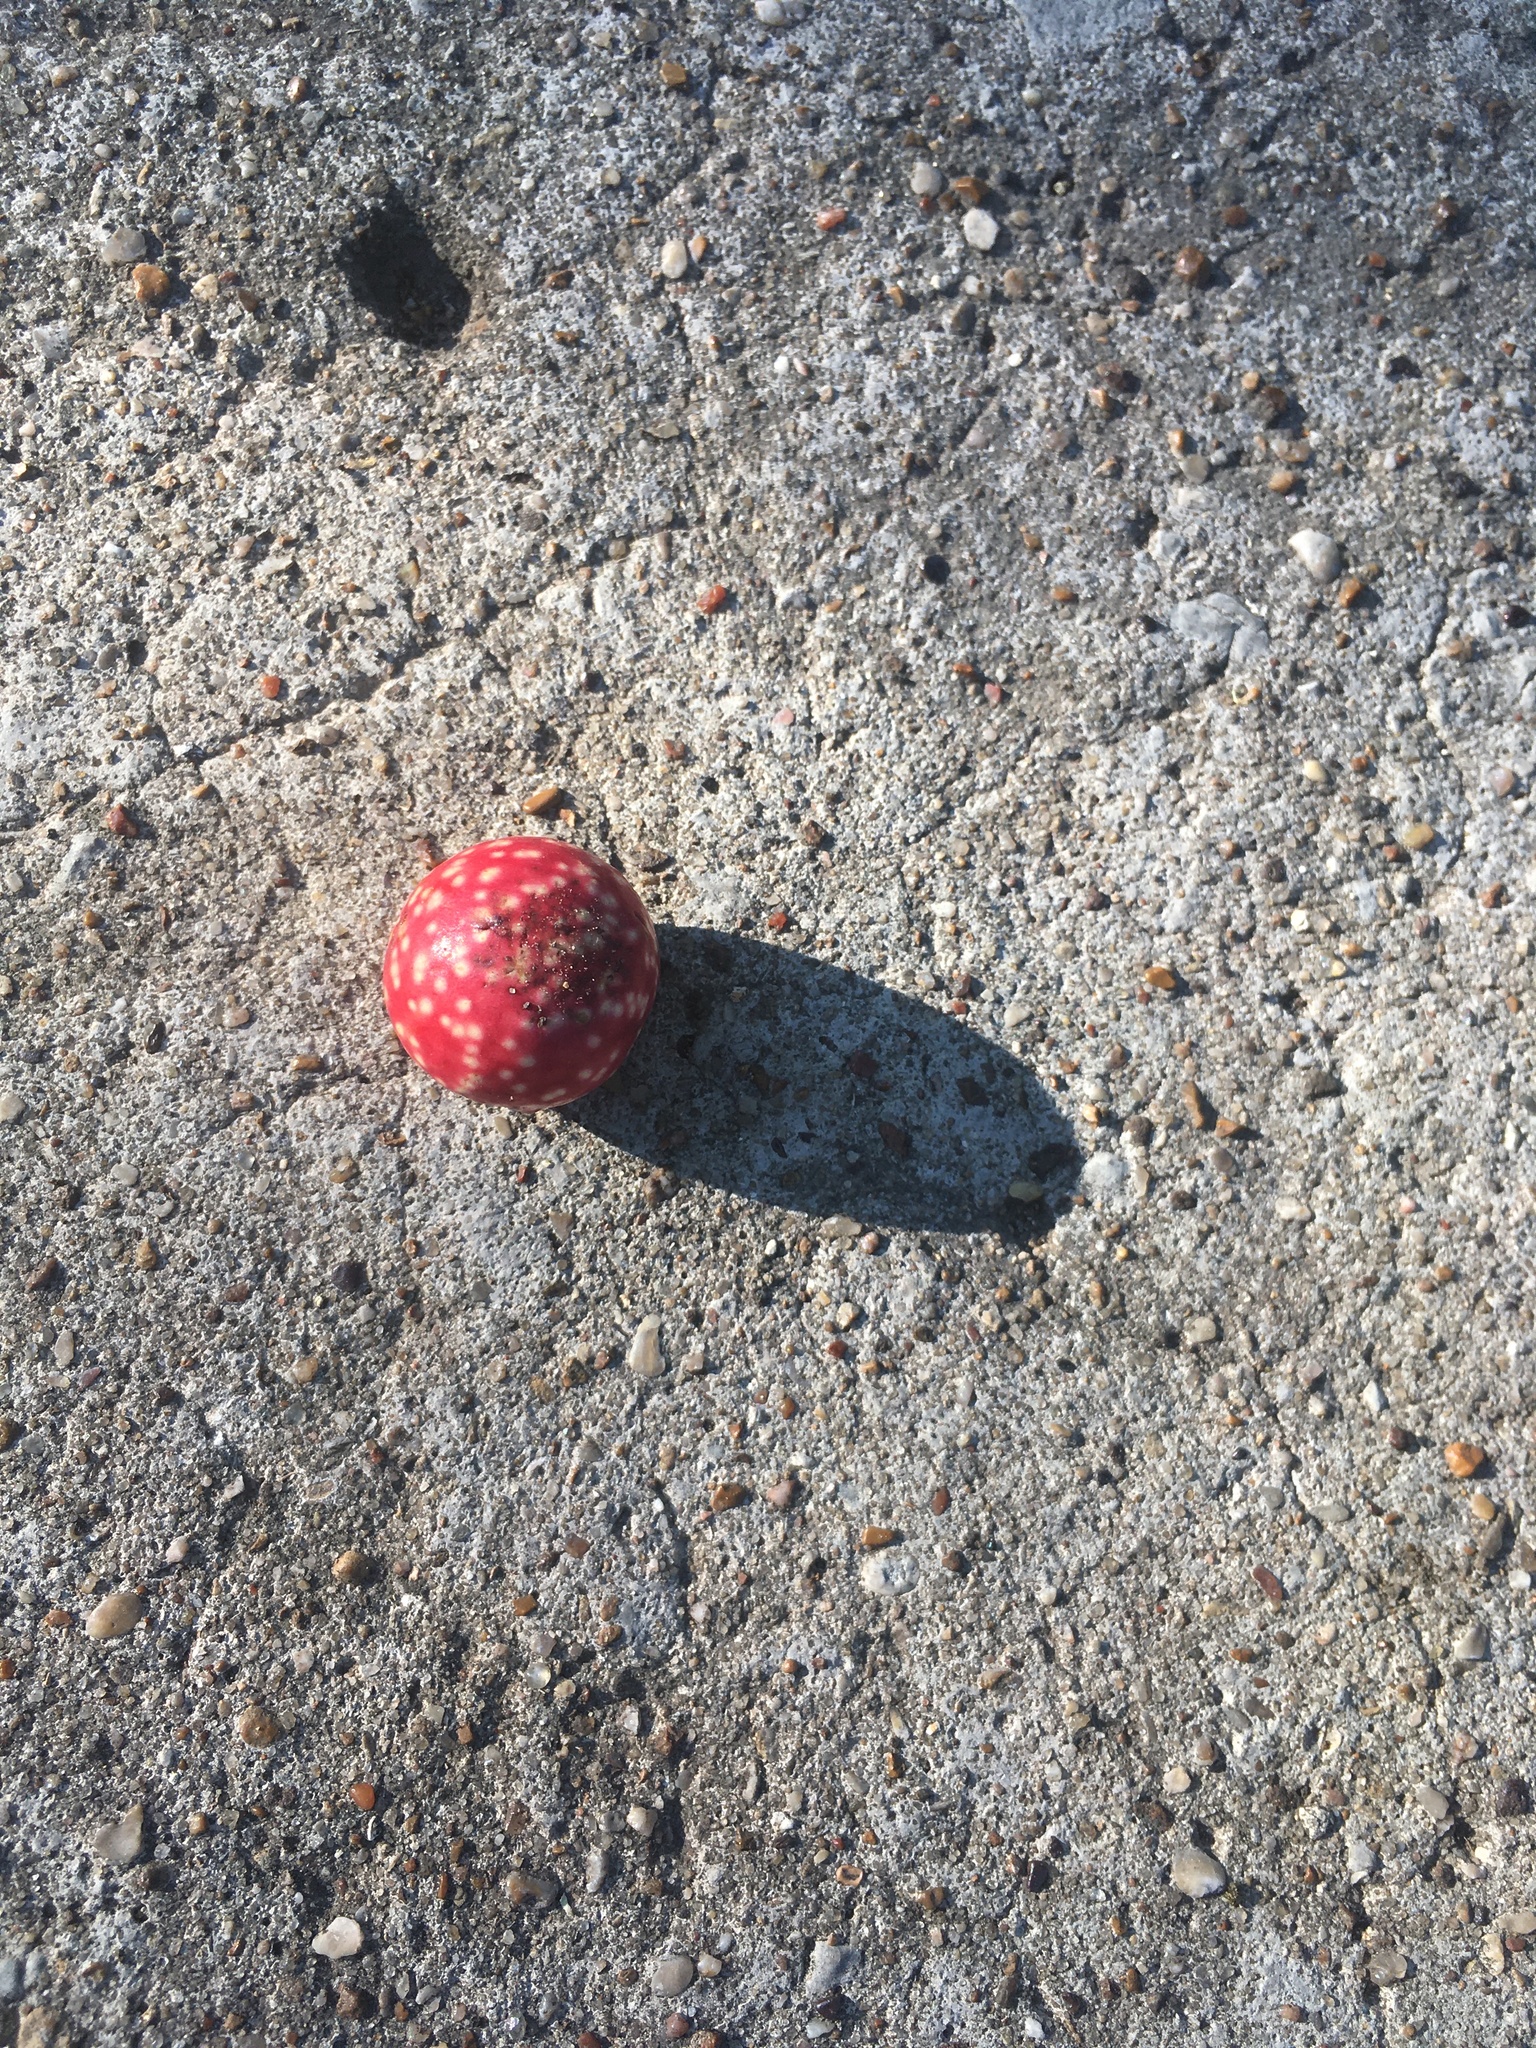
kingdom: Animalia
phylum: Arthropoda
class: Insecta
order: Hymenoptera
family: Cynipidae
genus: Amphibolips
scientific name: Amphibolips
